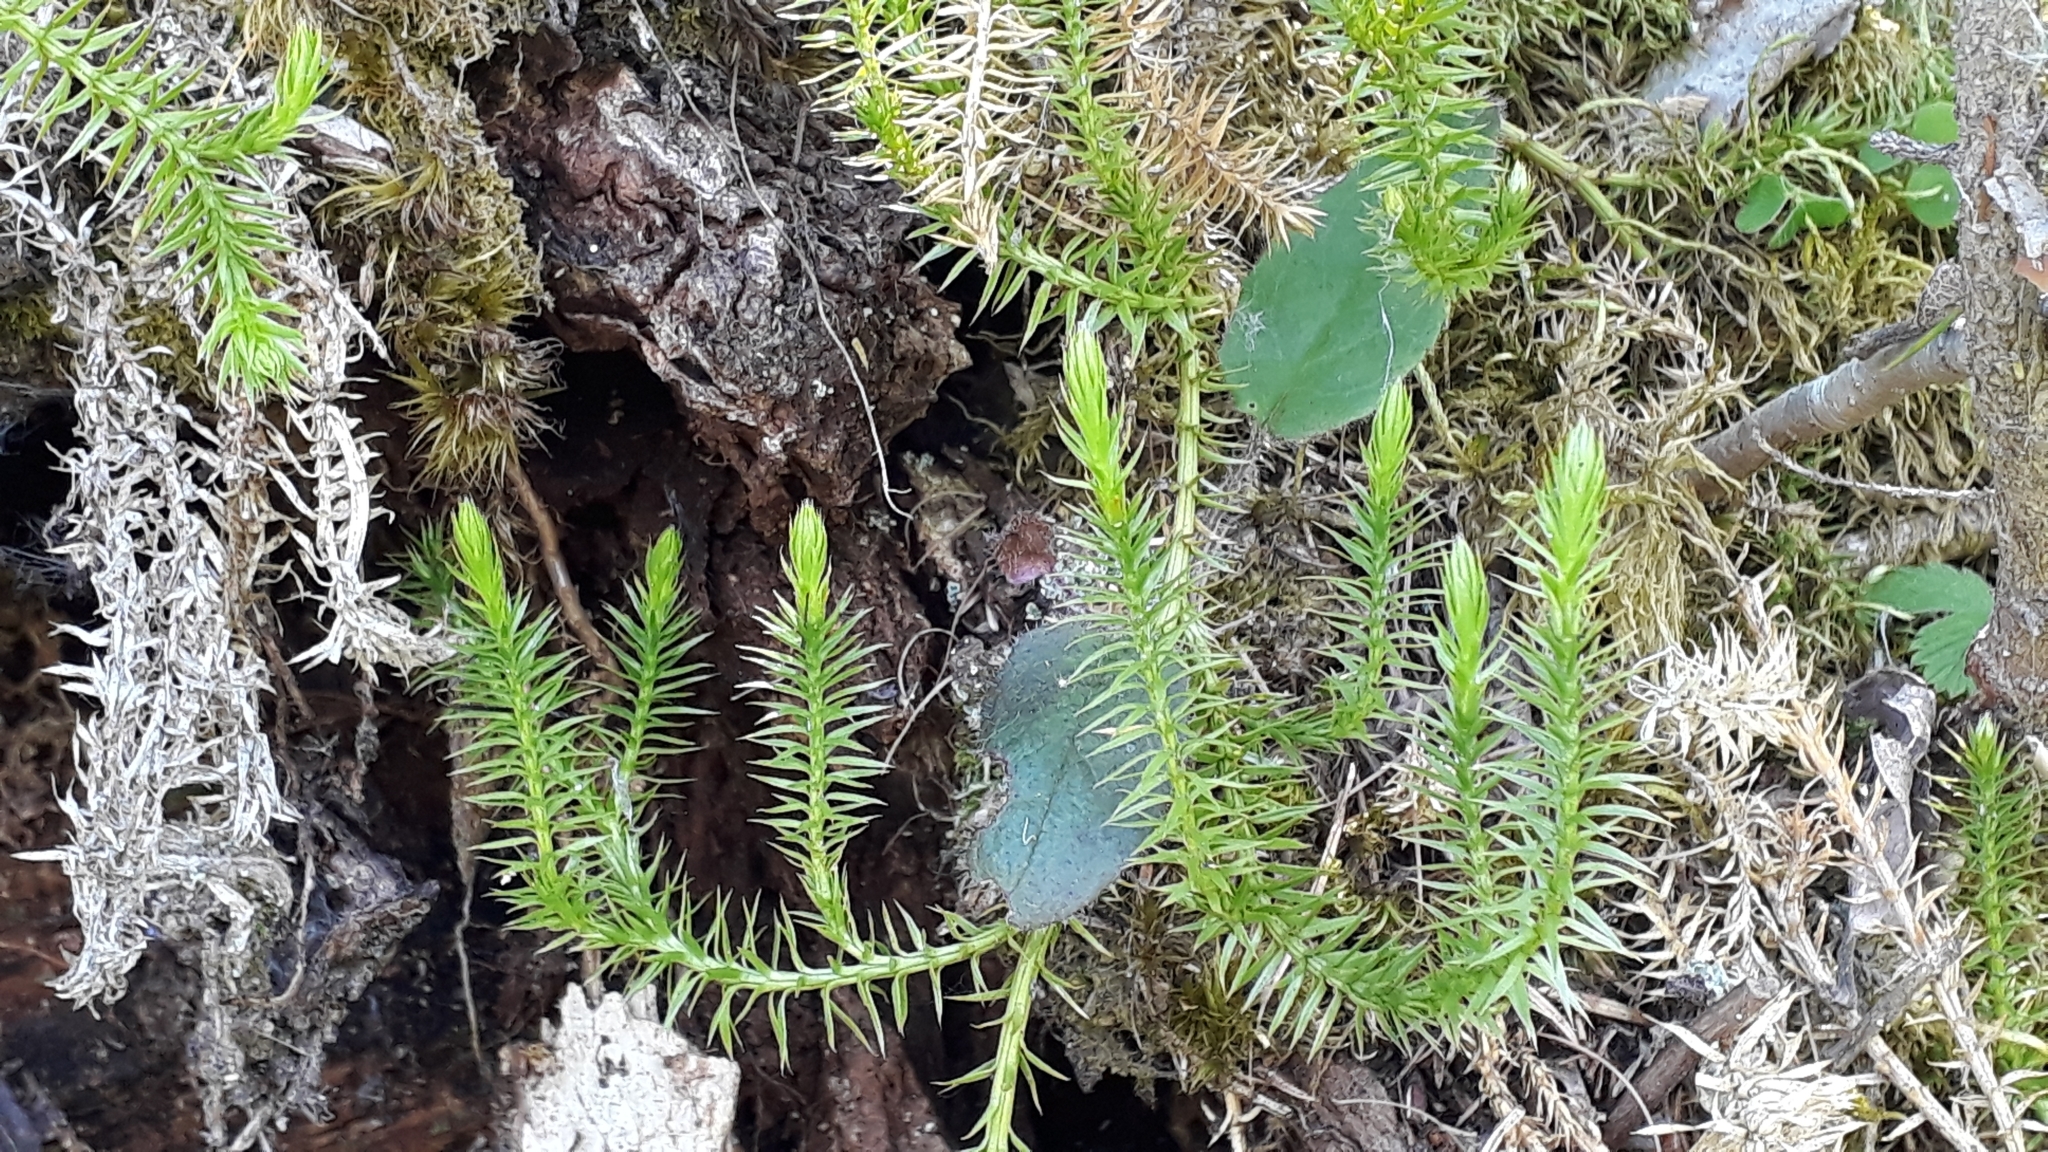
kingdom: Plantae
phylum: Tracheophyta
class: Lycopodiopsida
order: Lycopodiales
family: Lycopodiaceae
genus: Spinulum
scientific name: Spinulum annotinum
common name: Interrupted club-moss
